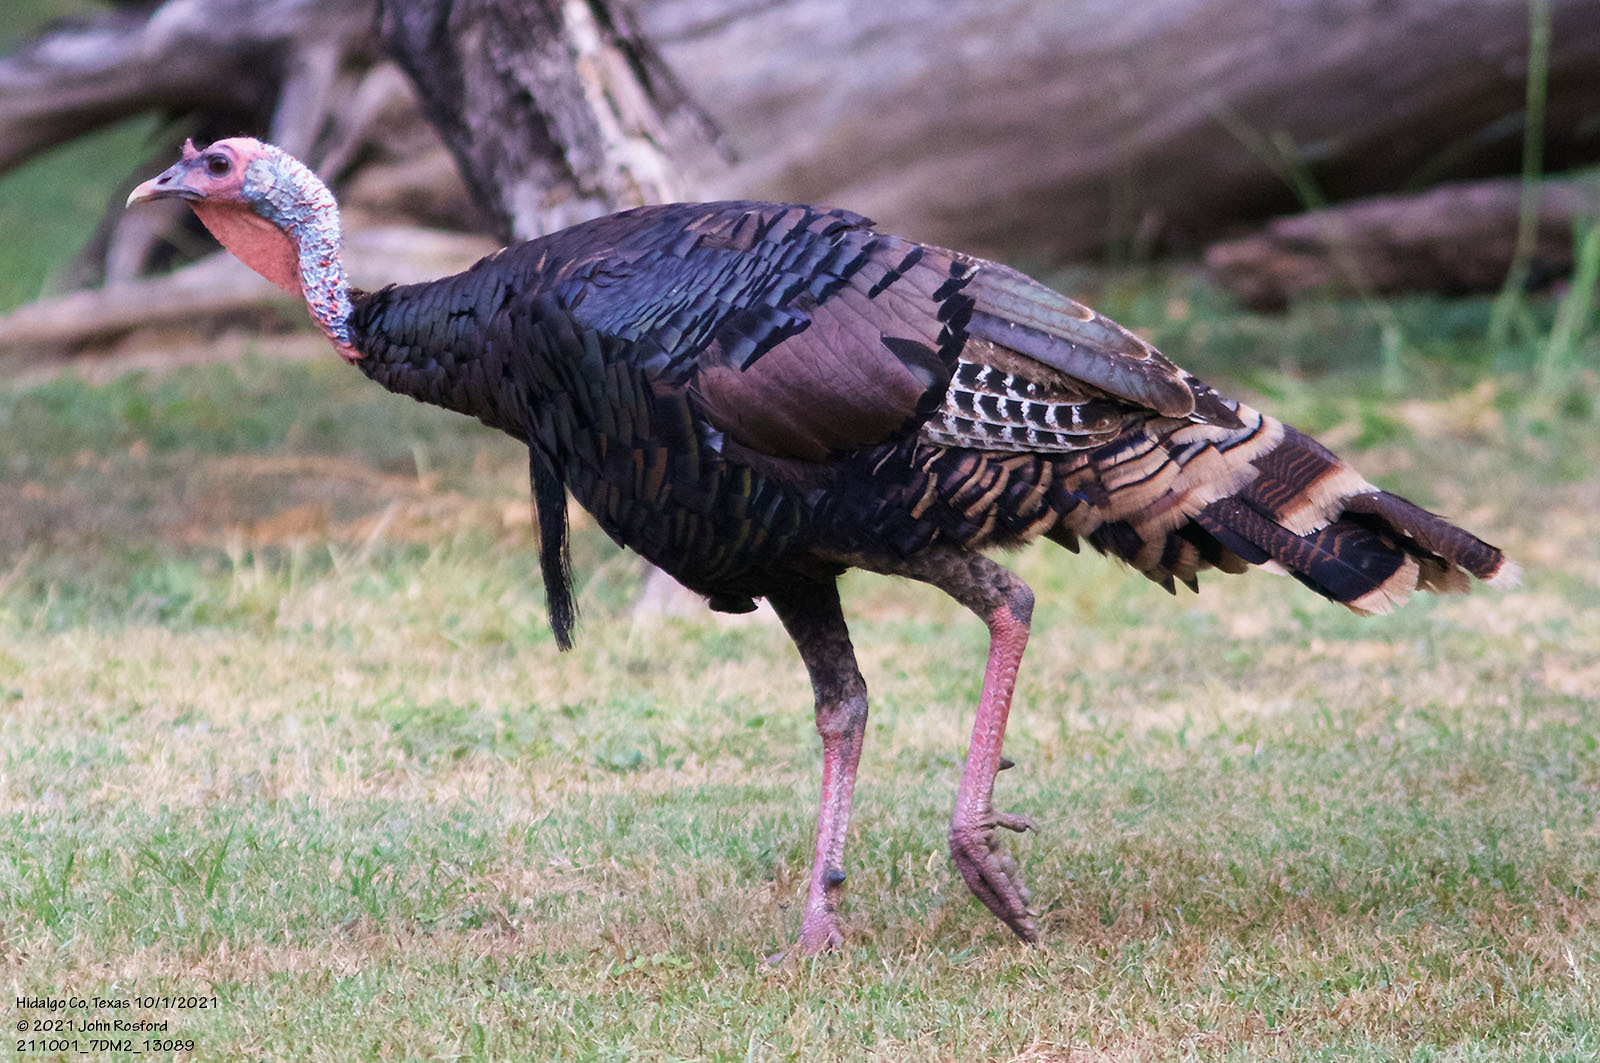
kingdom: Animalia
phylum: Chordata
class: Aves
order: Galliformes
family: Phasianidae
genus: Meleagris
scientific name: Meleagris gallopavo
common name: Wild turkey
